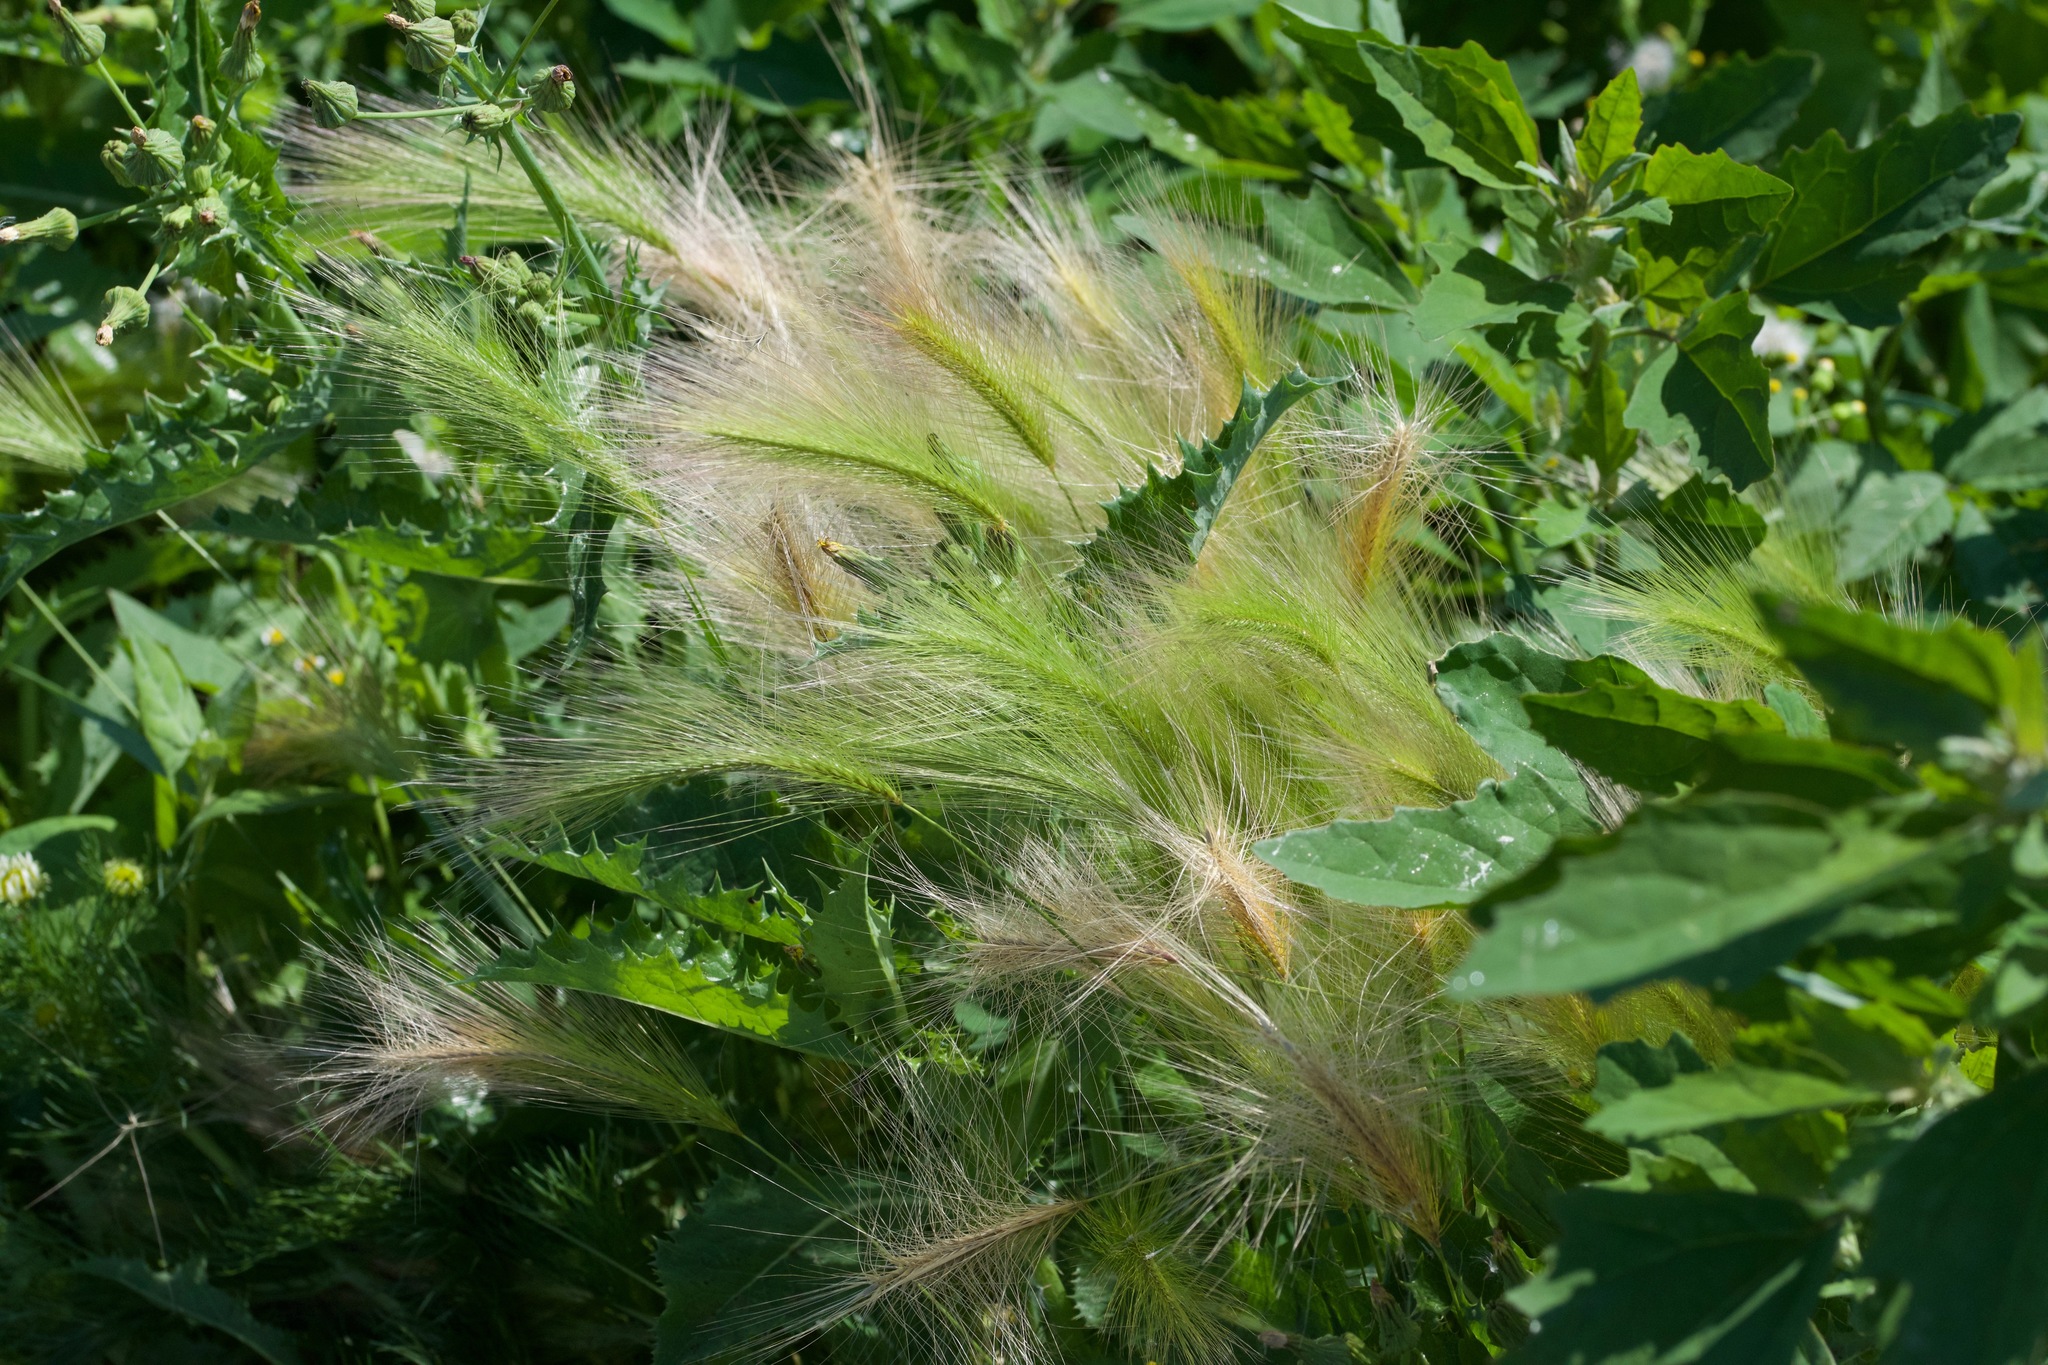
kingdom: Plantae
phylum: Tracheophyta
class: Liliopsida
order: Poales
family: Poaceae
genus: Hordeum
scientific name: Hordeum jubatum
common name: Foxtail barley
